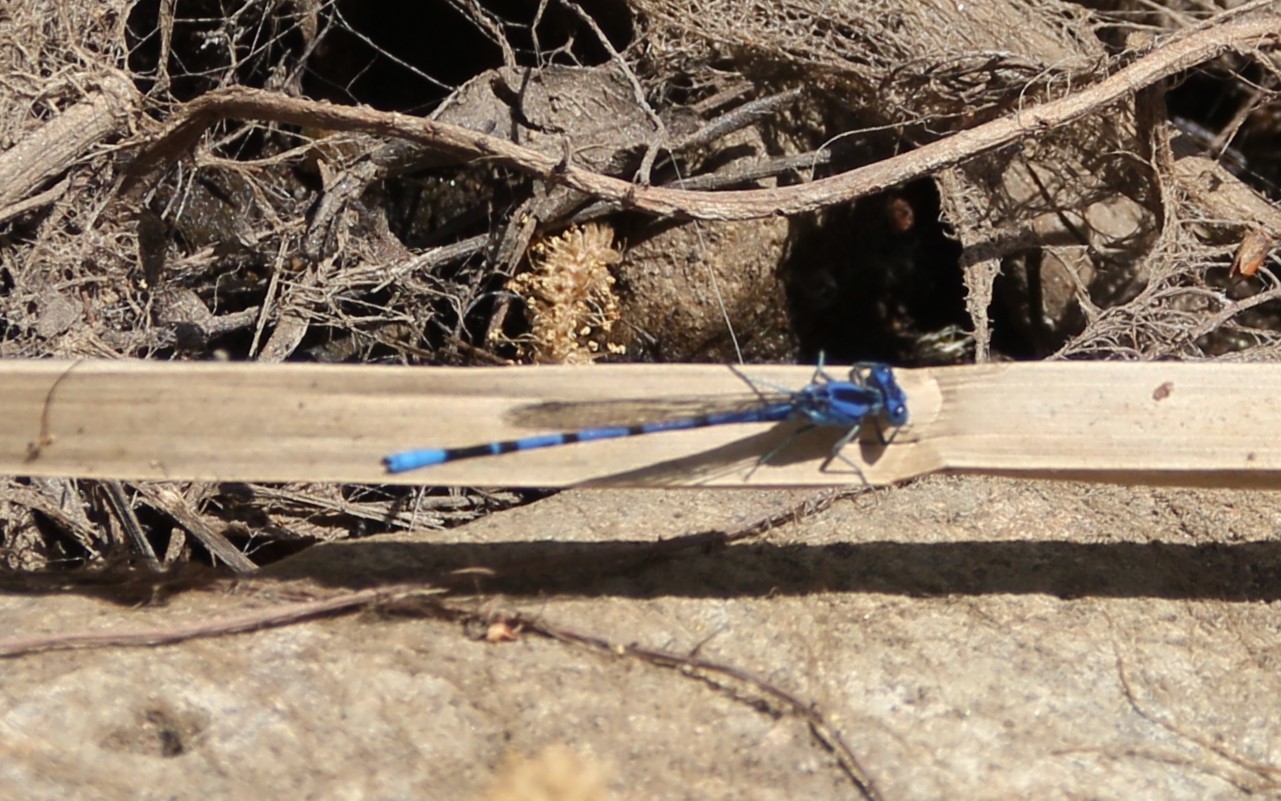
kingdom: Animalia
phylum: Arthropoda
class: Insecta
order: Odonata
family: Coenagrionidae
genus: Argia
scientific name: Argia vivida
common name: Vivid dancer
